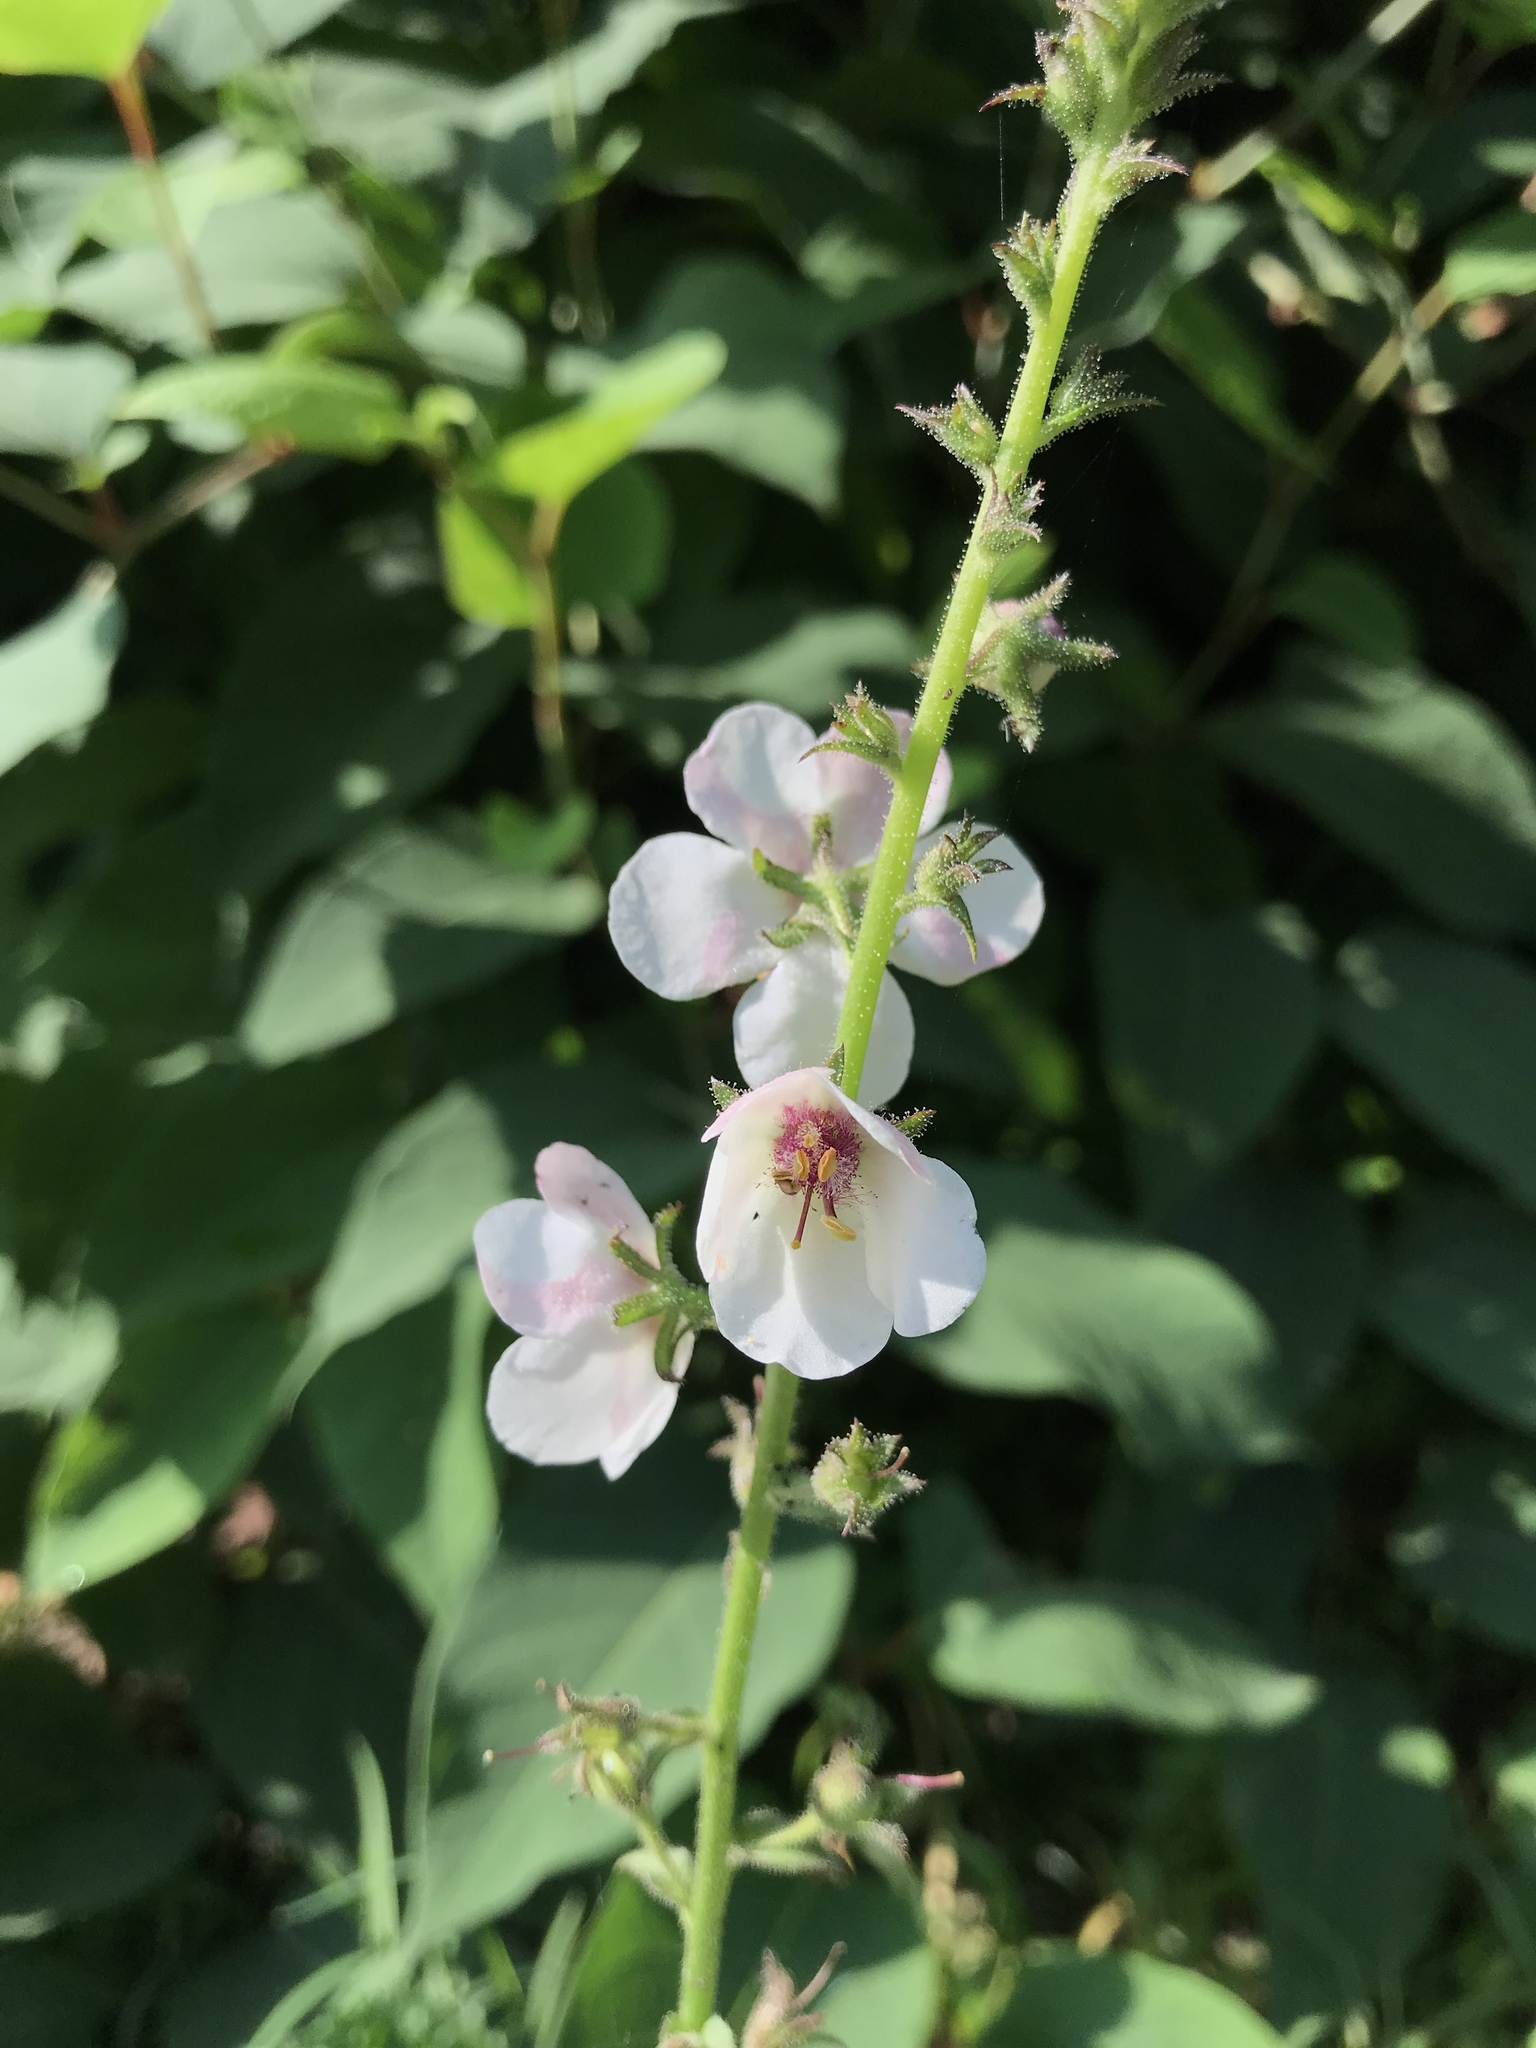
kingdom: Plantae
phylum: Tracheophyta
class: Magnoliopsida
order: Lamiales
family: Scrophulariaceae
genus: Verbascum
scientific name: Verbascum blattaria
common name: Moth mullein
